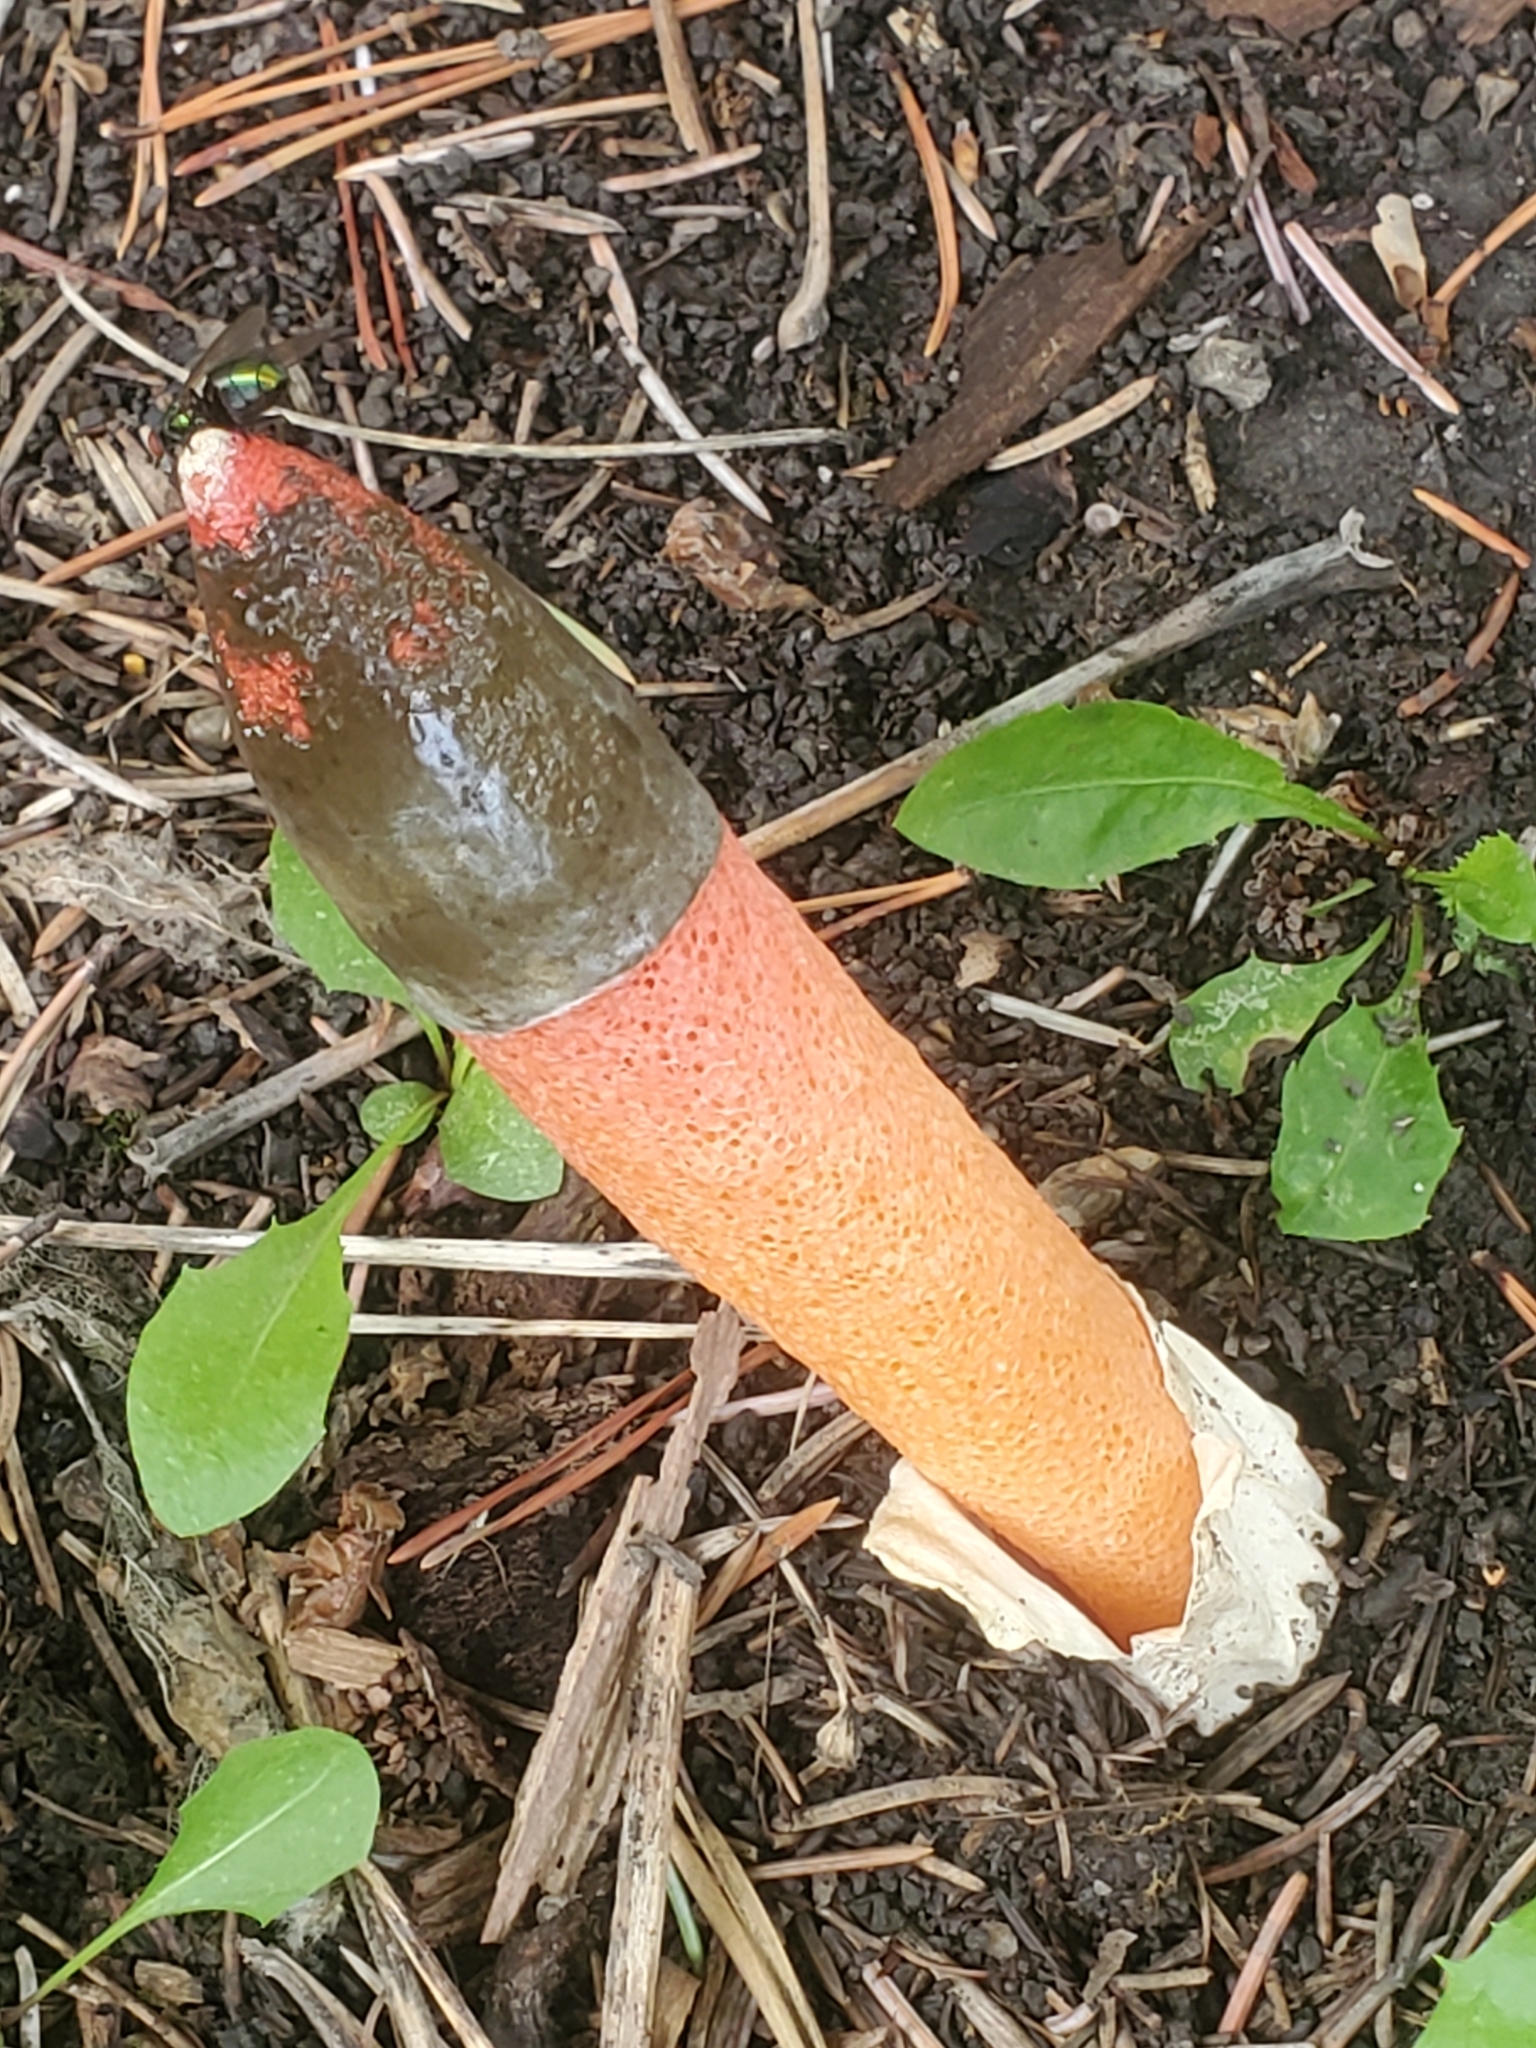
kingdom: Fungi
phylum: Basidiomycota
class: Agaricomycetes
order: Phallales
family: Phallaceae
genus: Mutinus
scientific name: Mutinus ravenelii
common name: Red stinkhorn
